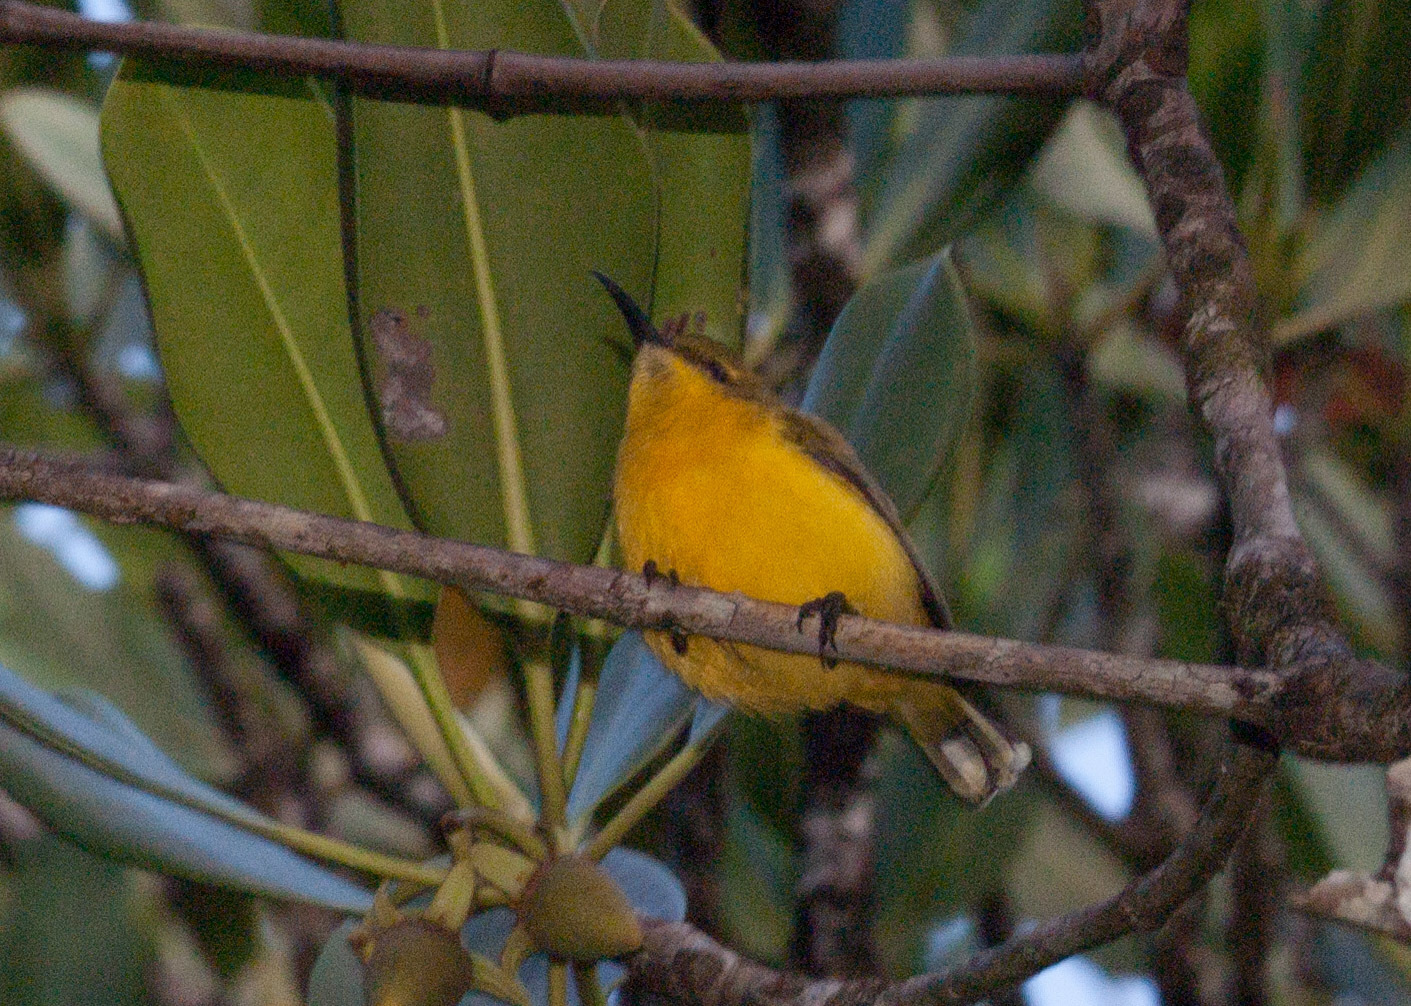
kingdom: Animalia
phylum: Chordata
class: Aves
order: Passeriformes
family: Nectariniidae
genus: Cinnyris
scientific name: Cinnyris
